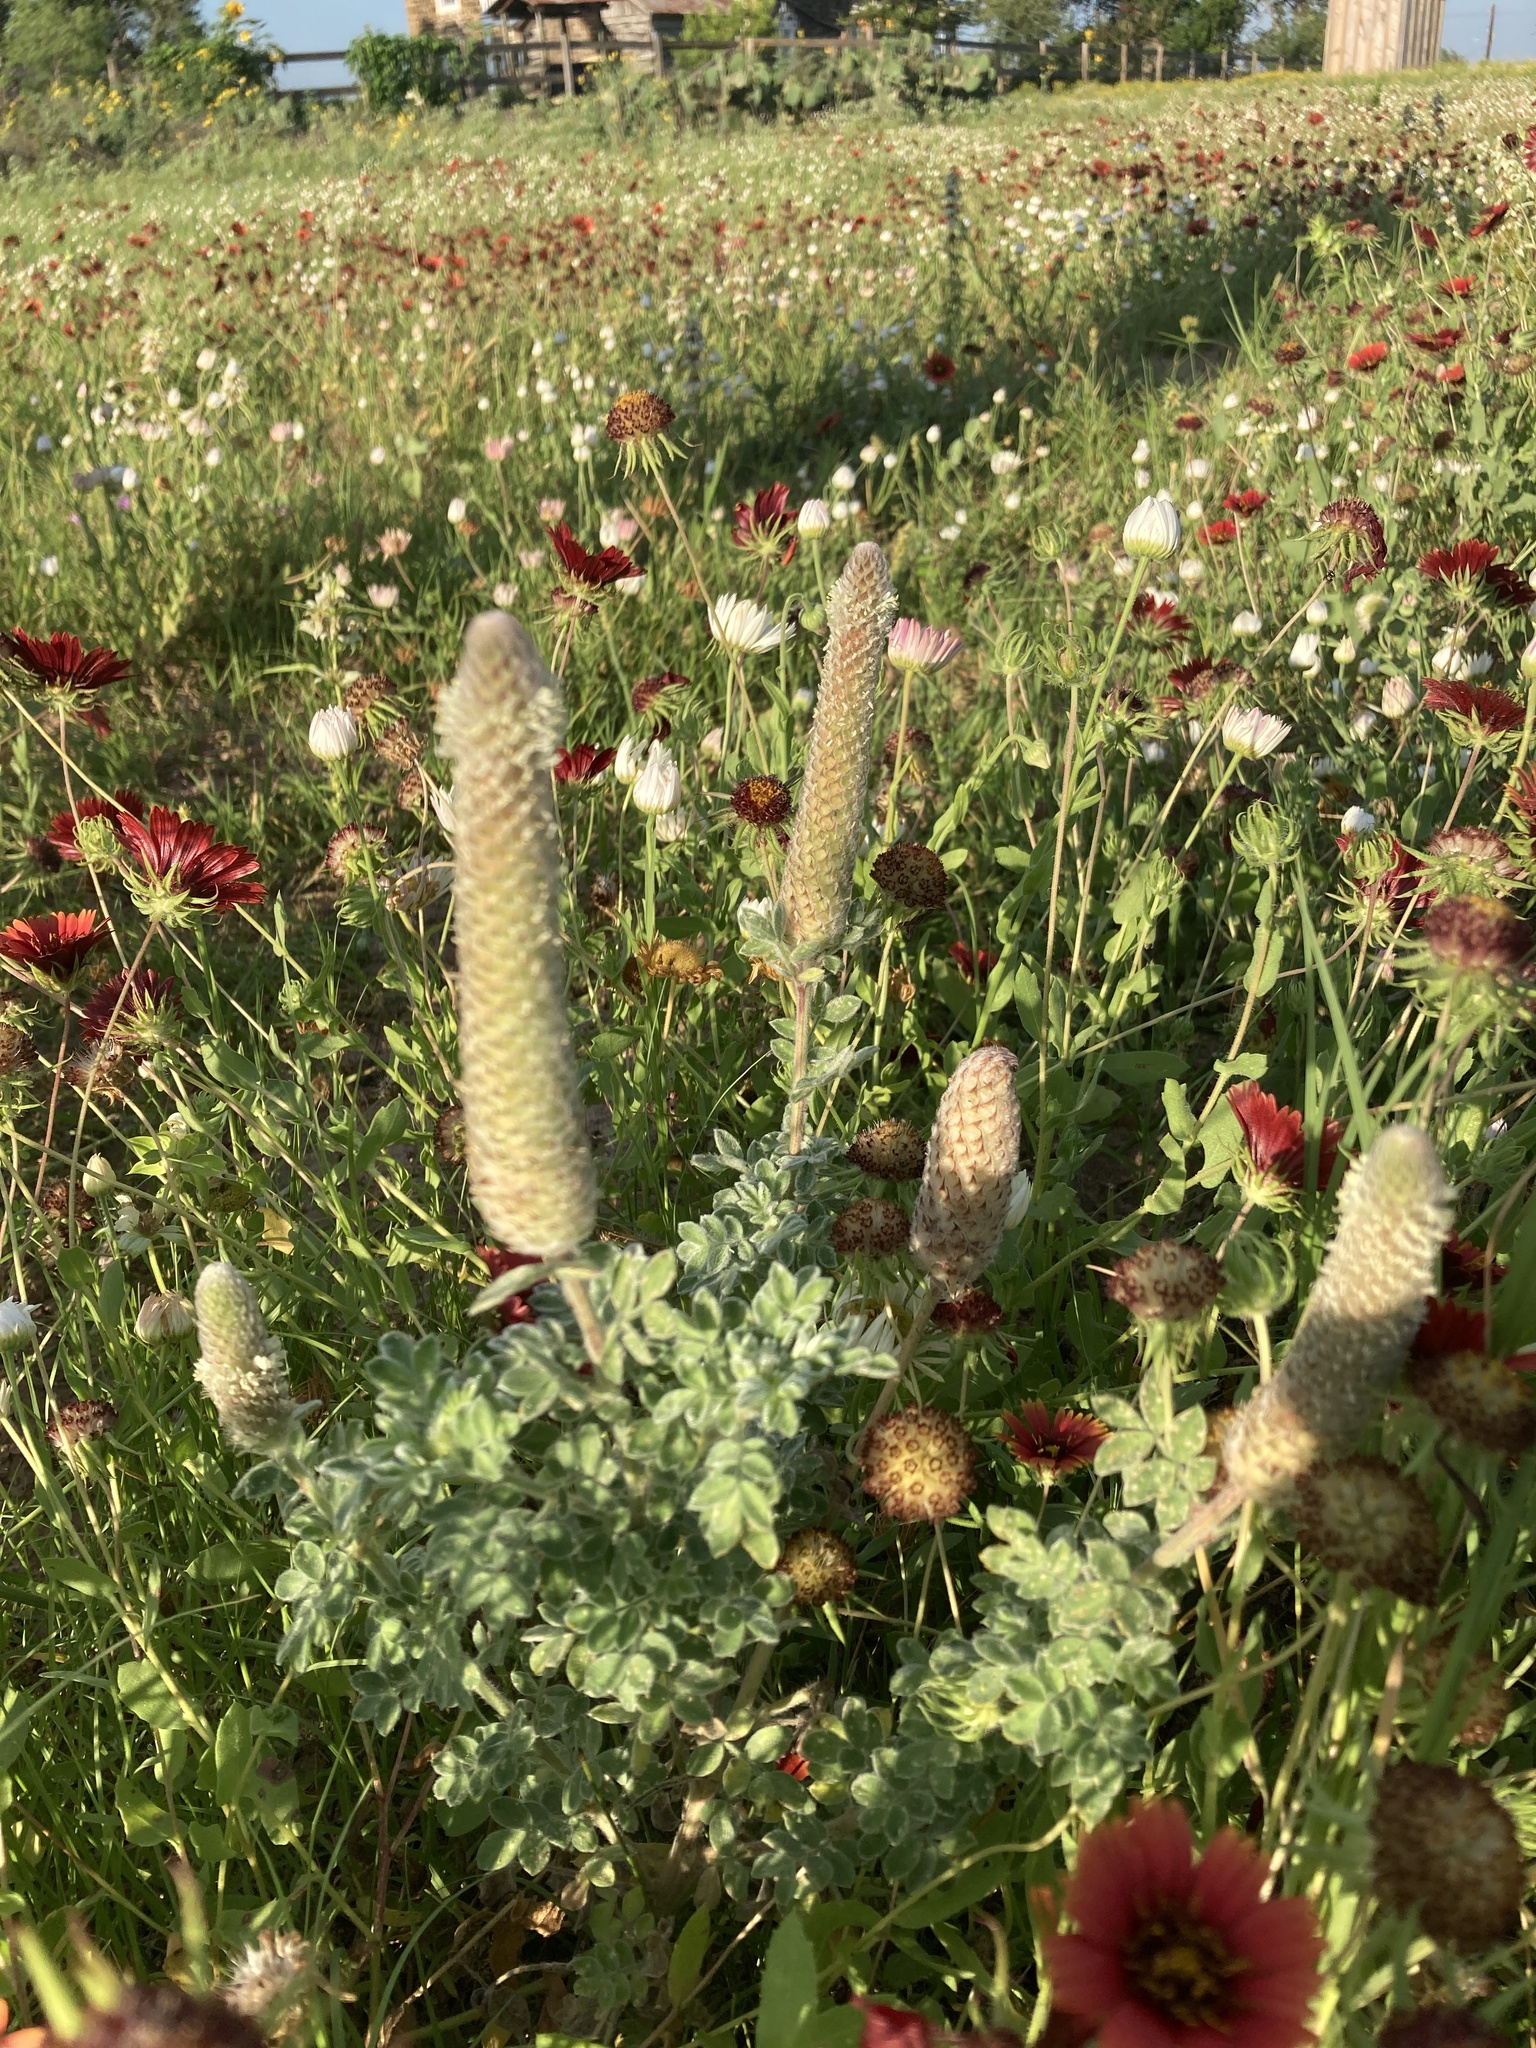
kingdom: Plantae
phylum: Tracheophyta
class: Magnoliopsida
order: Fabales
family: Fabaceae
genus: Dalea
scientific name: Dalea obovata
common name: Pussyfoot
